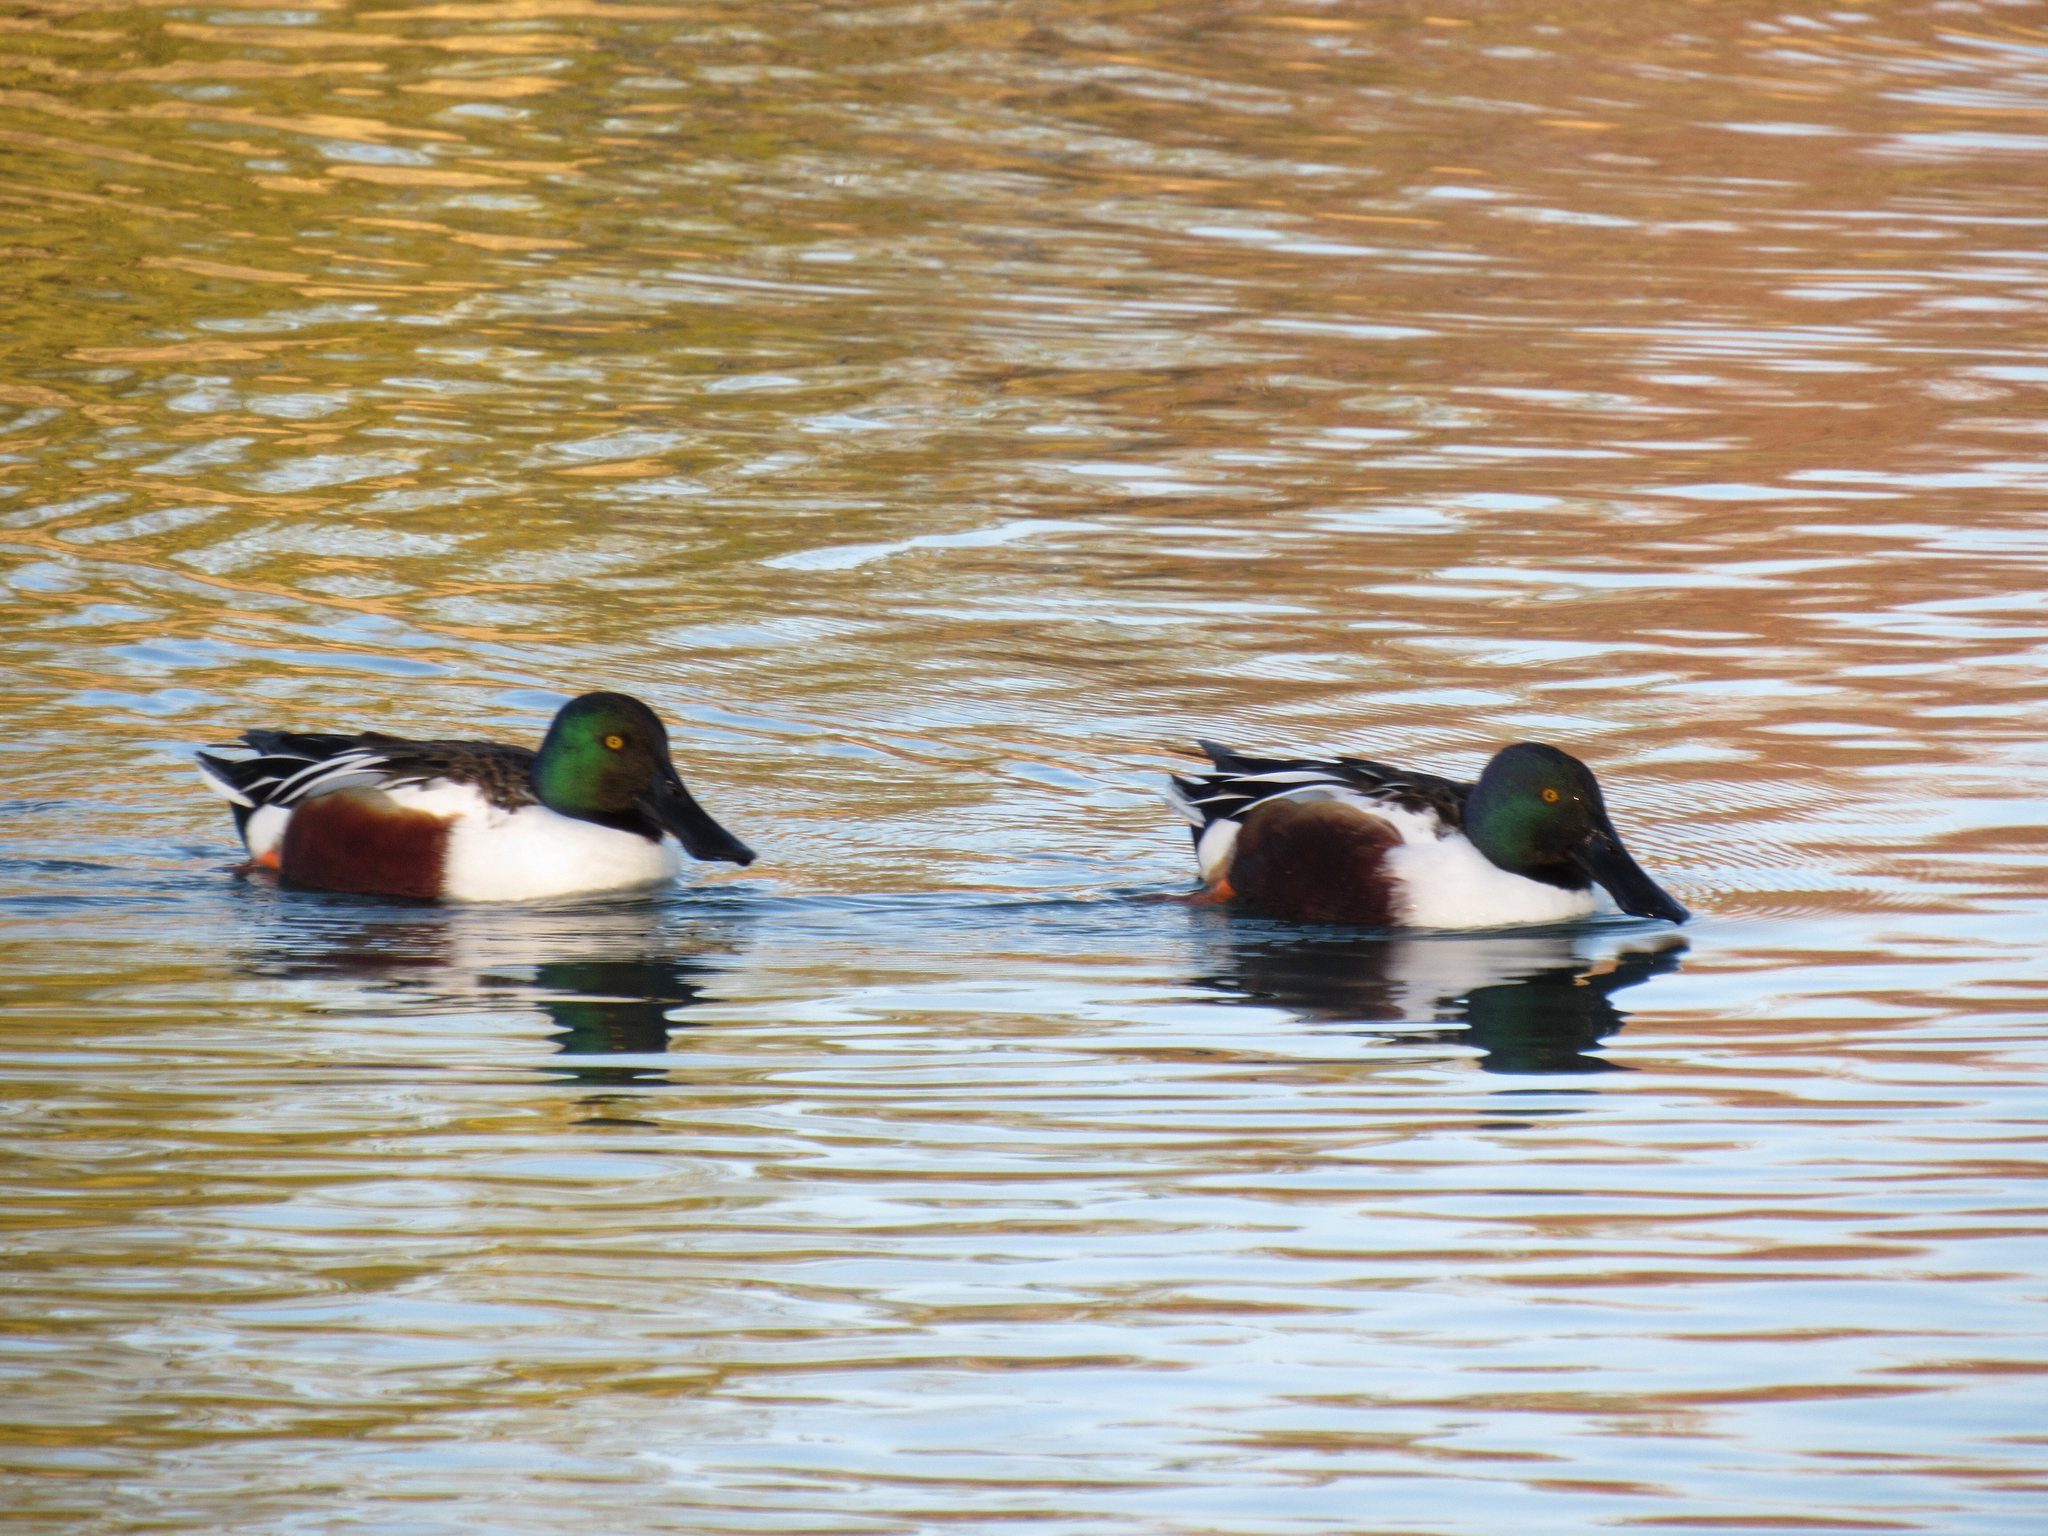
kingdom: Animalia
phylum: Chordata
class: Aves
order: Anseriformes
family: Anatidae
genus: Spatula
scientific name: Spatula clypeata
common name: Northern shoveler
